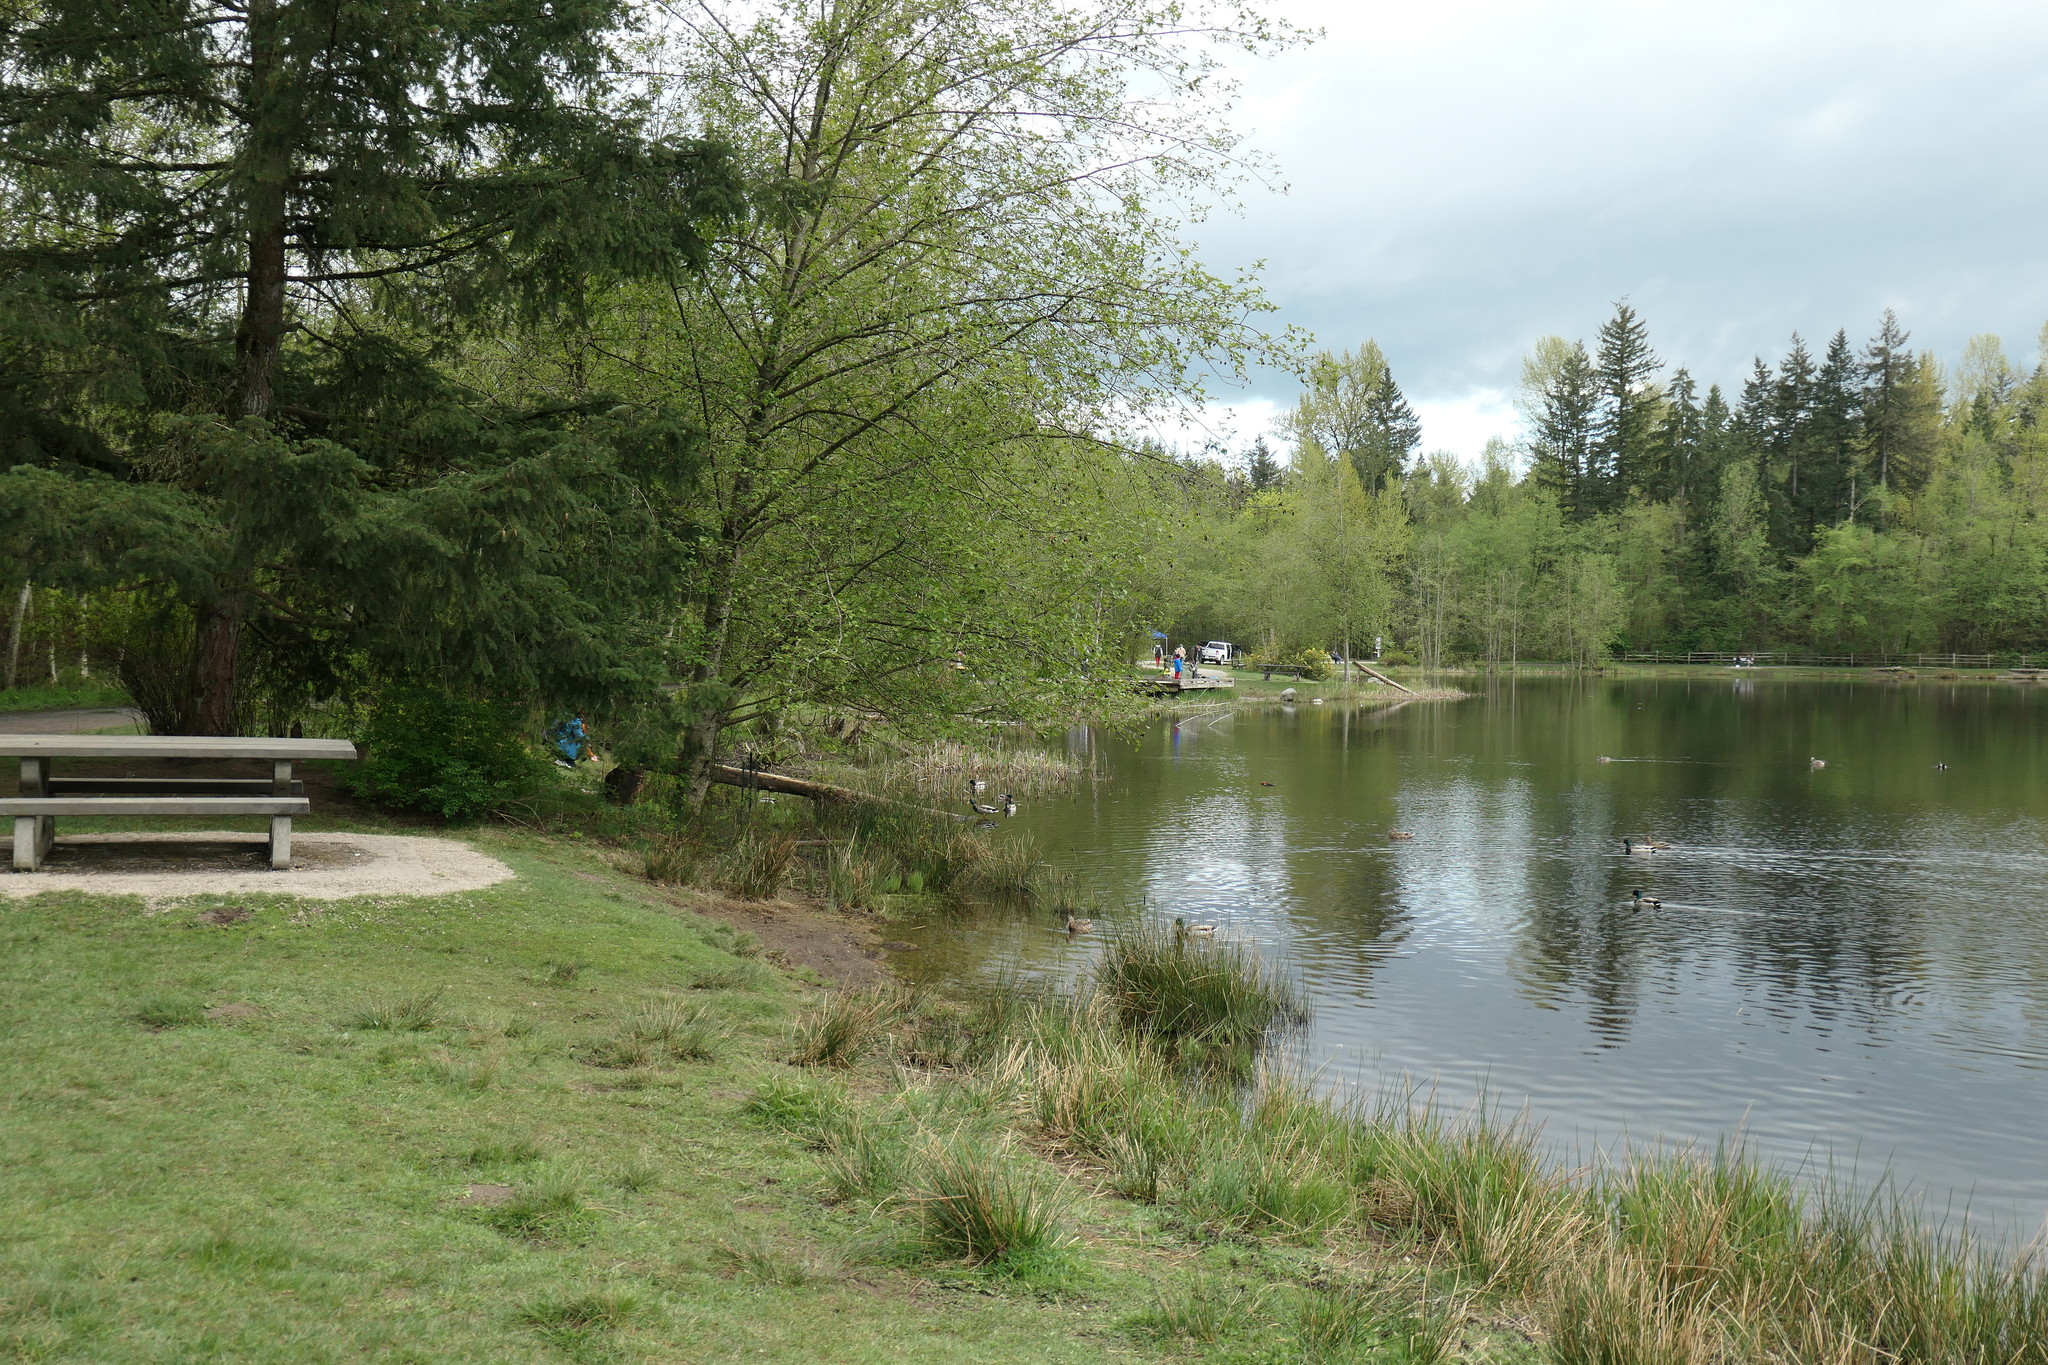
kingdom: Animalia
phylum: Chordata
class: Aves
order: Passeriformes
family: Icteridae
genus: Agelaius
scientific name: Agelaius phoeniceus
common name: Red-winged blackbird
